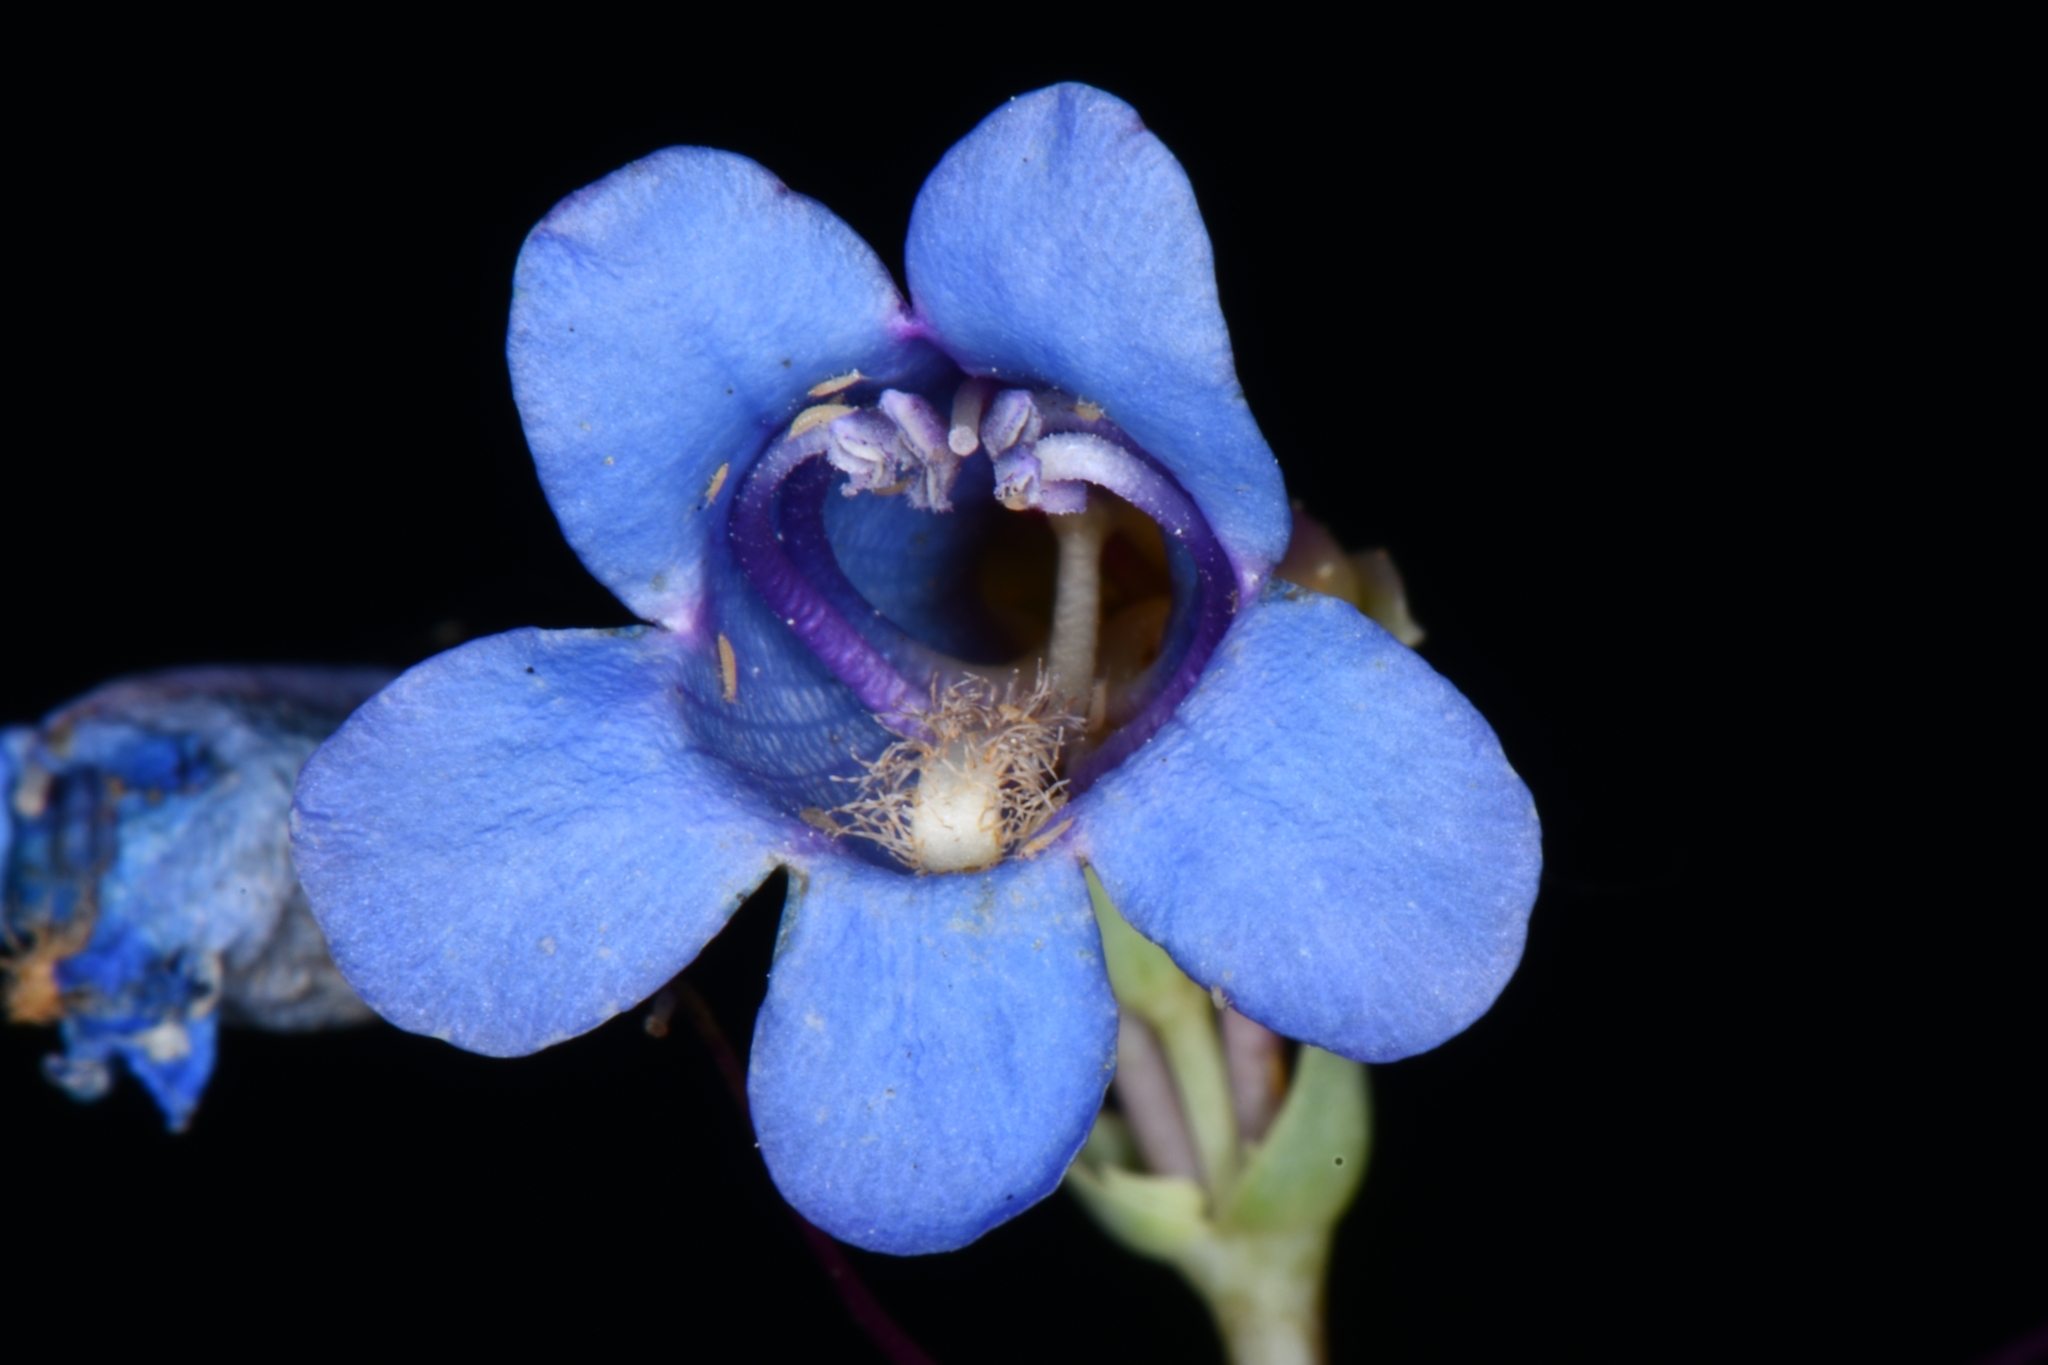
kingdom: Plantae
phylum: Tracheophyta
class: Magnoliopsida
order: Lamiales
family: Plantaginaceae
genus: Penstemon
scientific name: Penstemon pachyphyllus
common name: Thick-leaf penstemon
